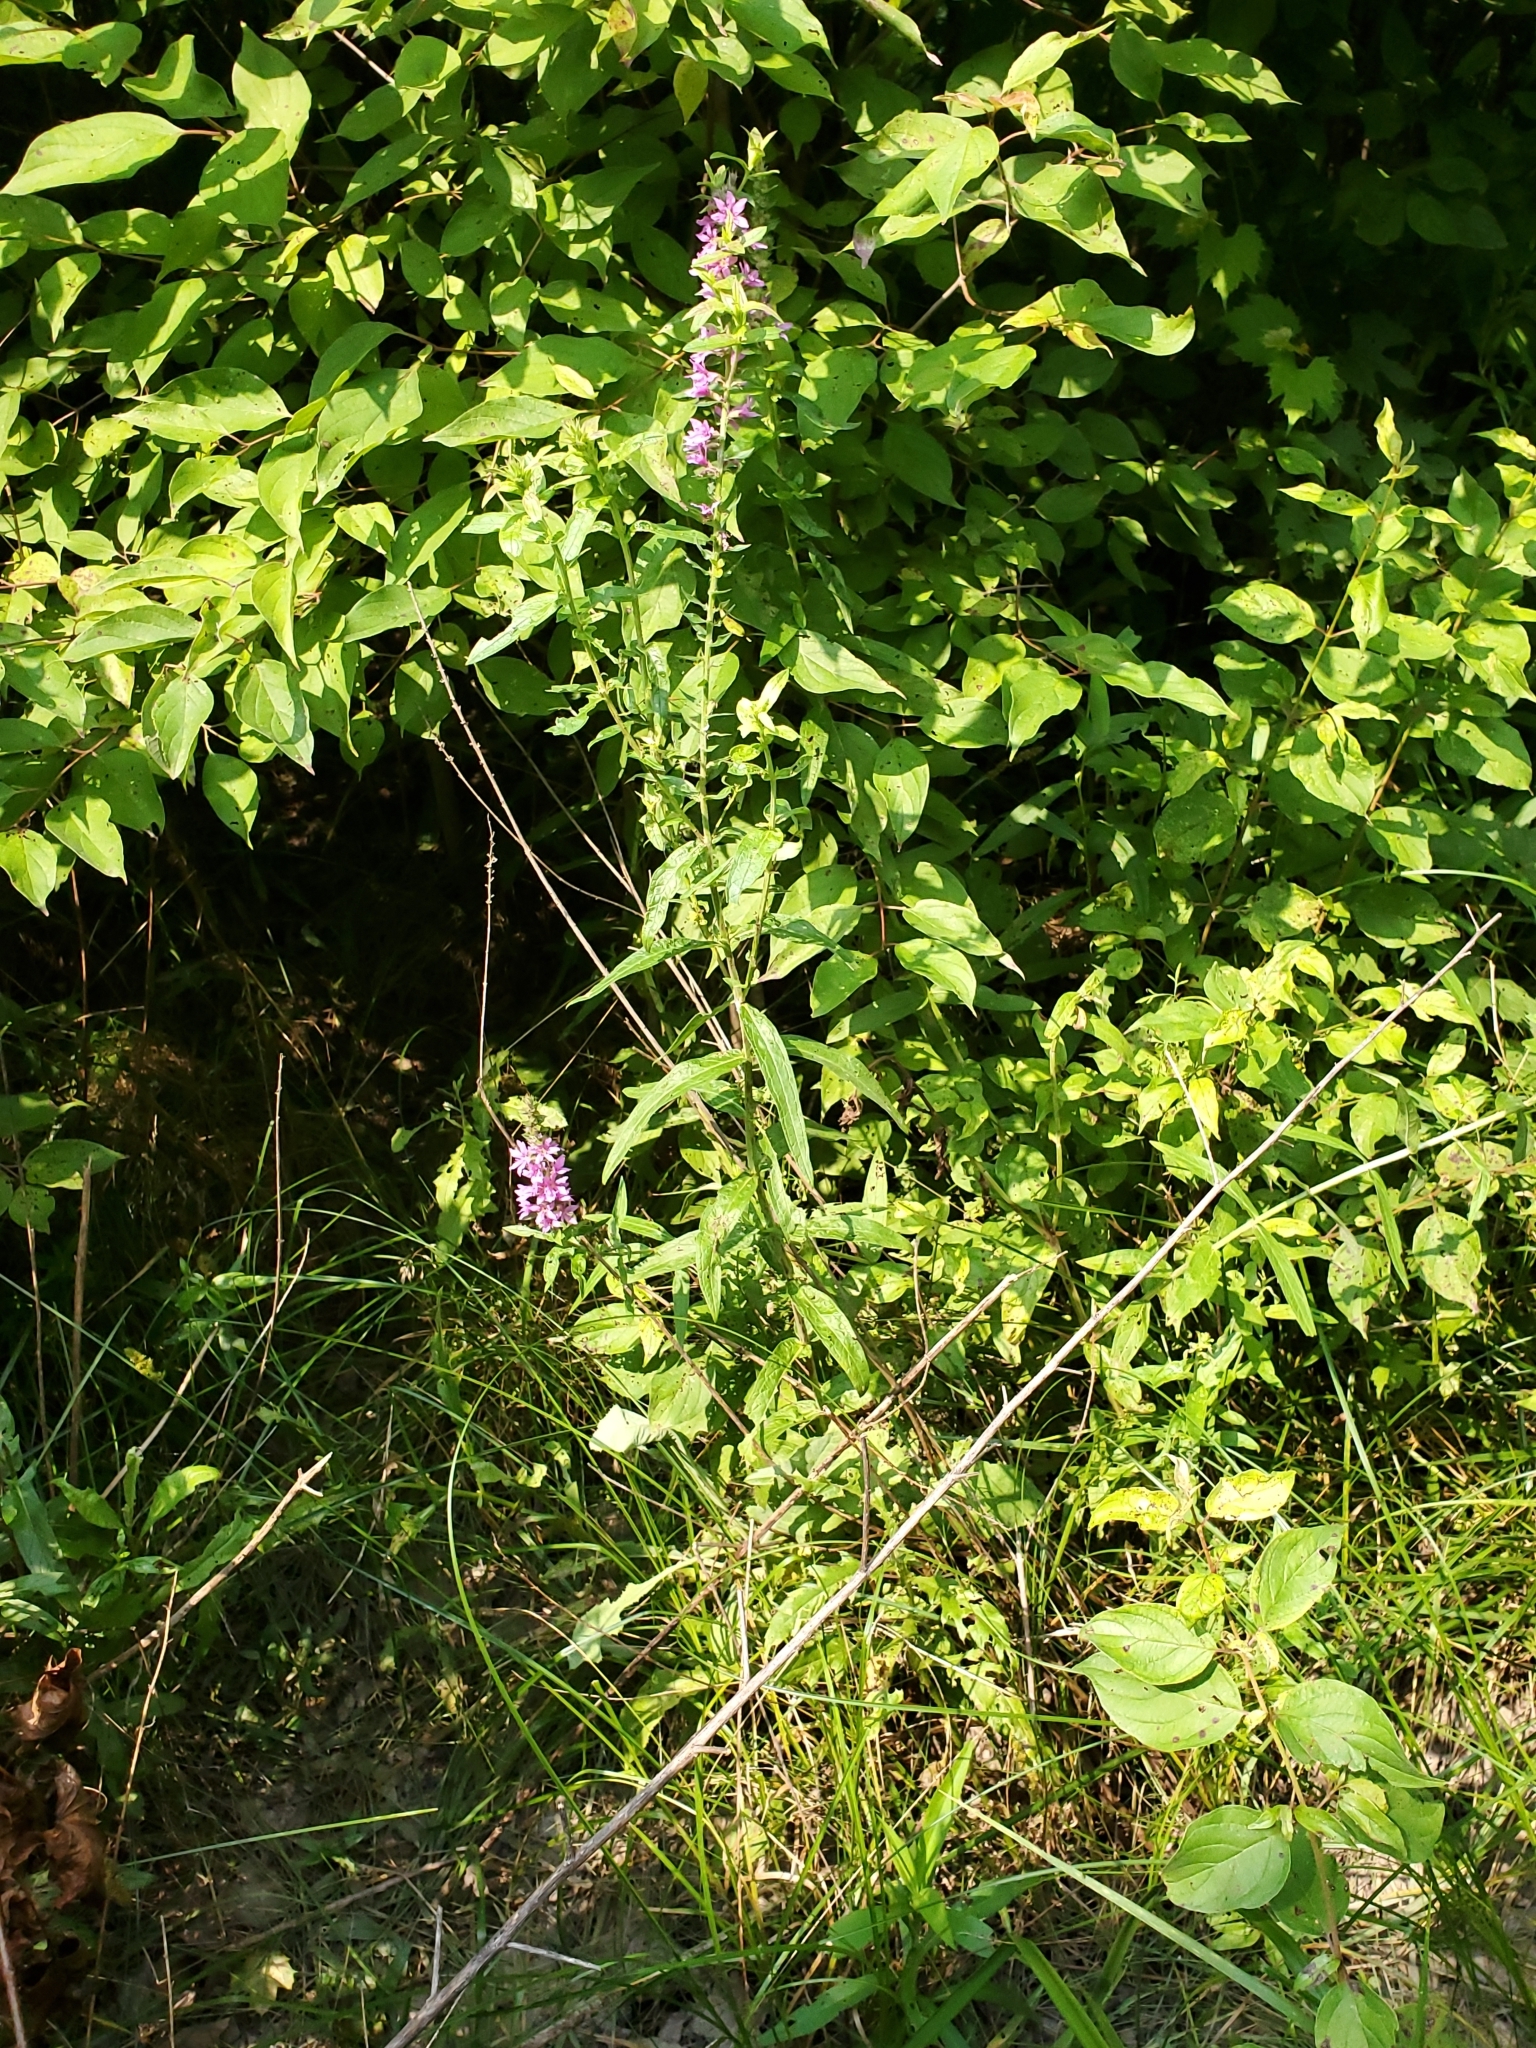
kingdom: Plantae
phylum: Tracheophyta
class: Magnoliopsida
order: Myrtales
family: Lythraceae
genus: Lythrum
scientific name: Lythrum salicaria
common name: Purple loosestrife
